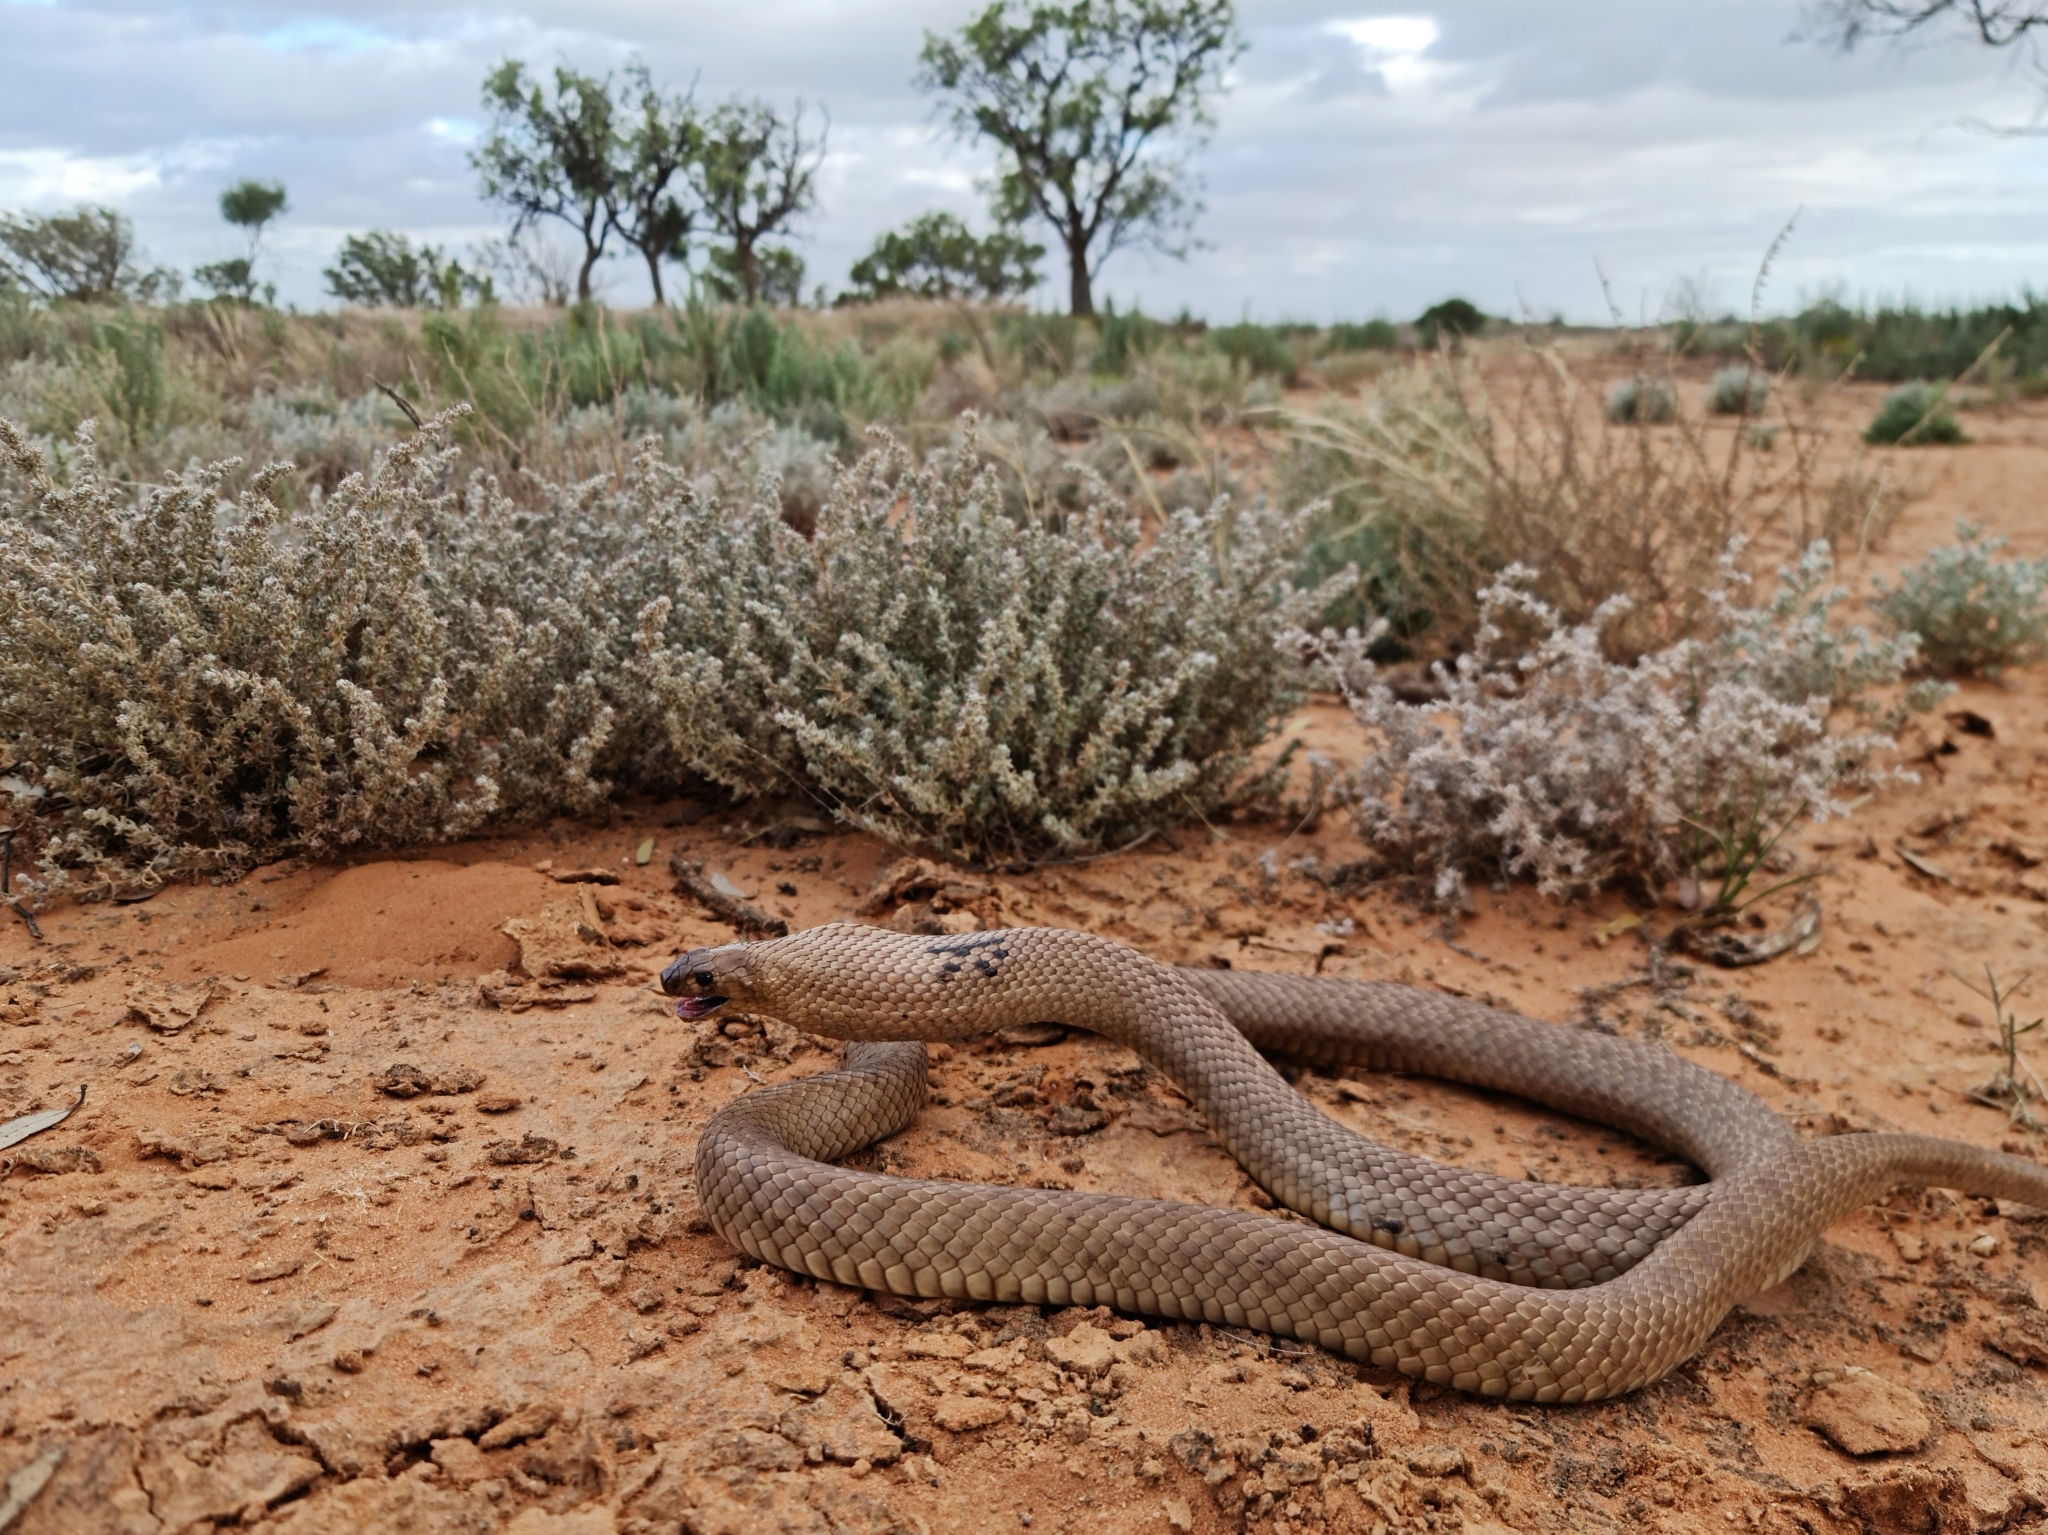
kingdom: Animalia
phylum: Chordata
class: Squamata
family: Elapidae
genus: Pseudonaja
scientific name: Pseudonaja aspidorhyncha
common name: Strap-snouted brown snake
